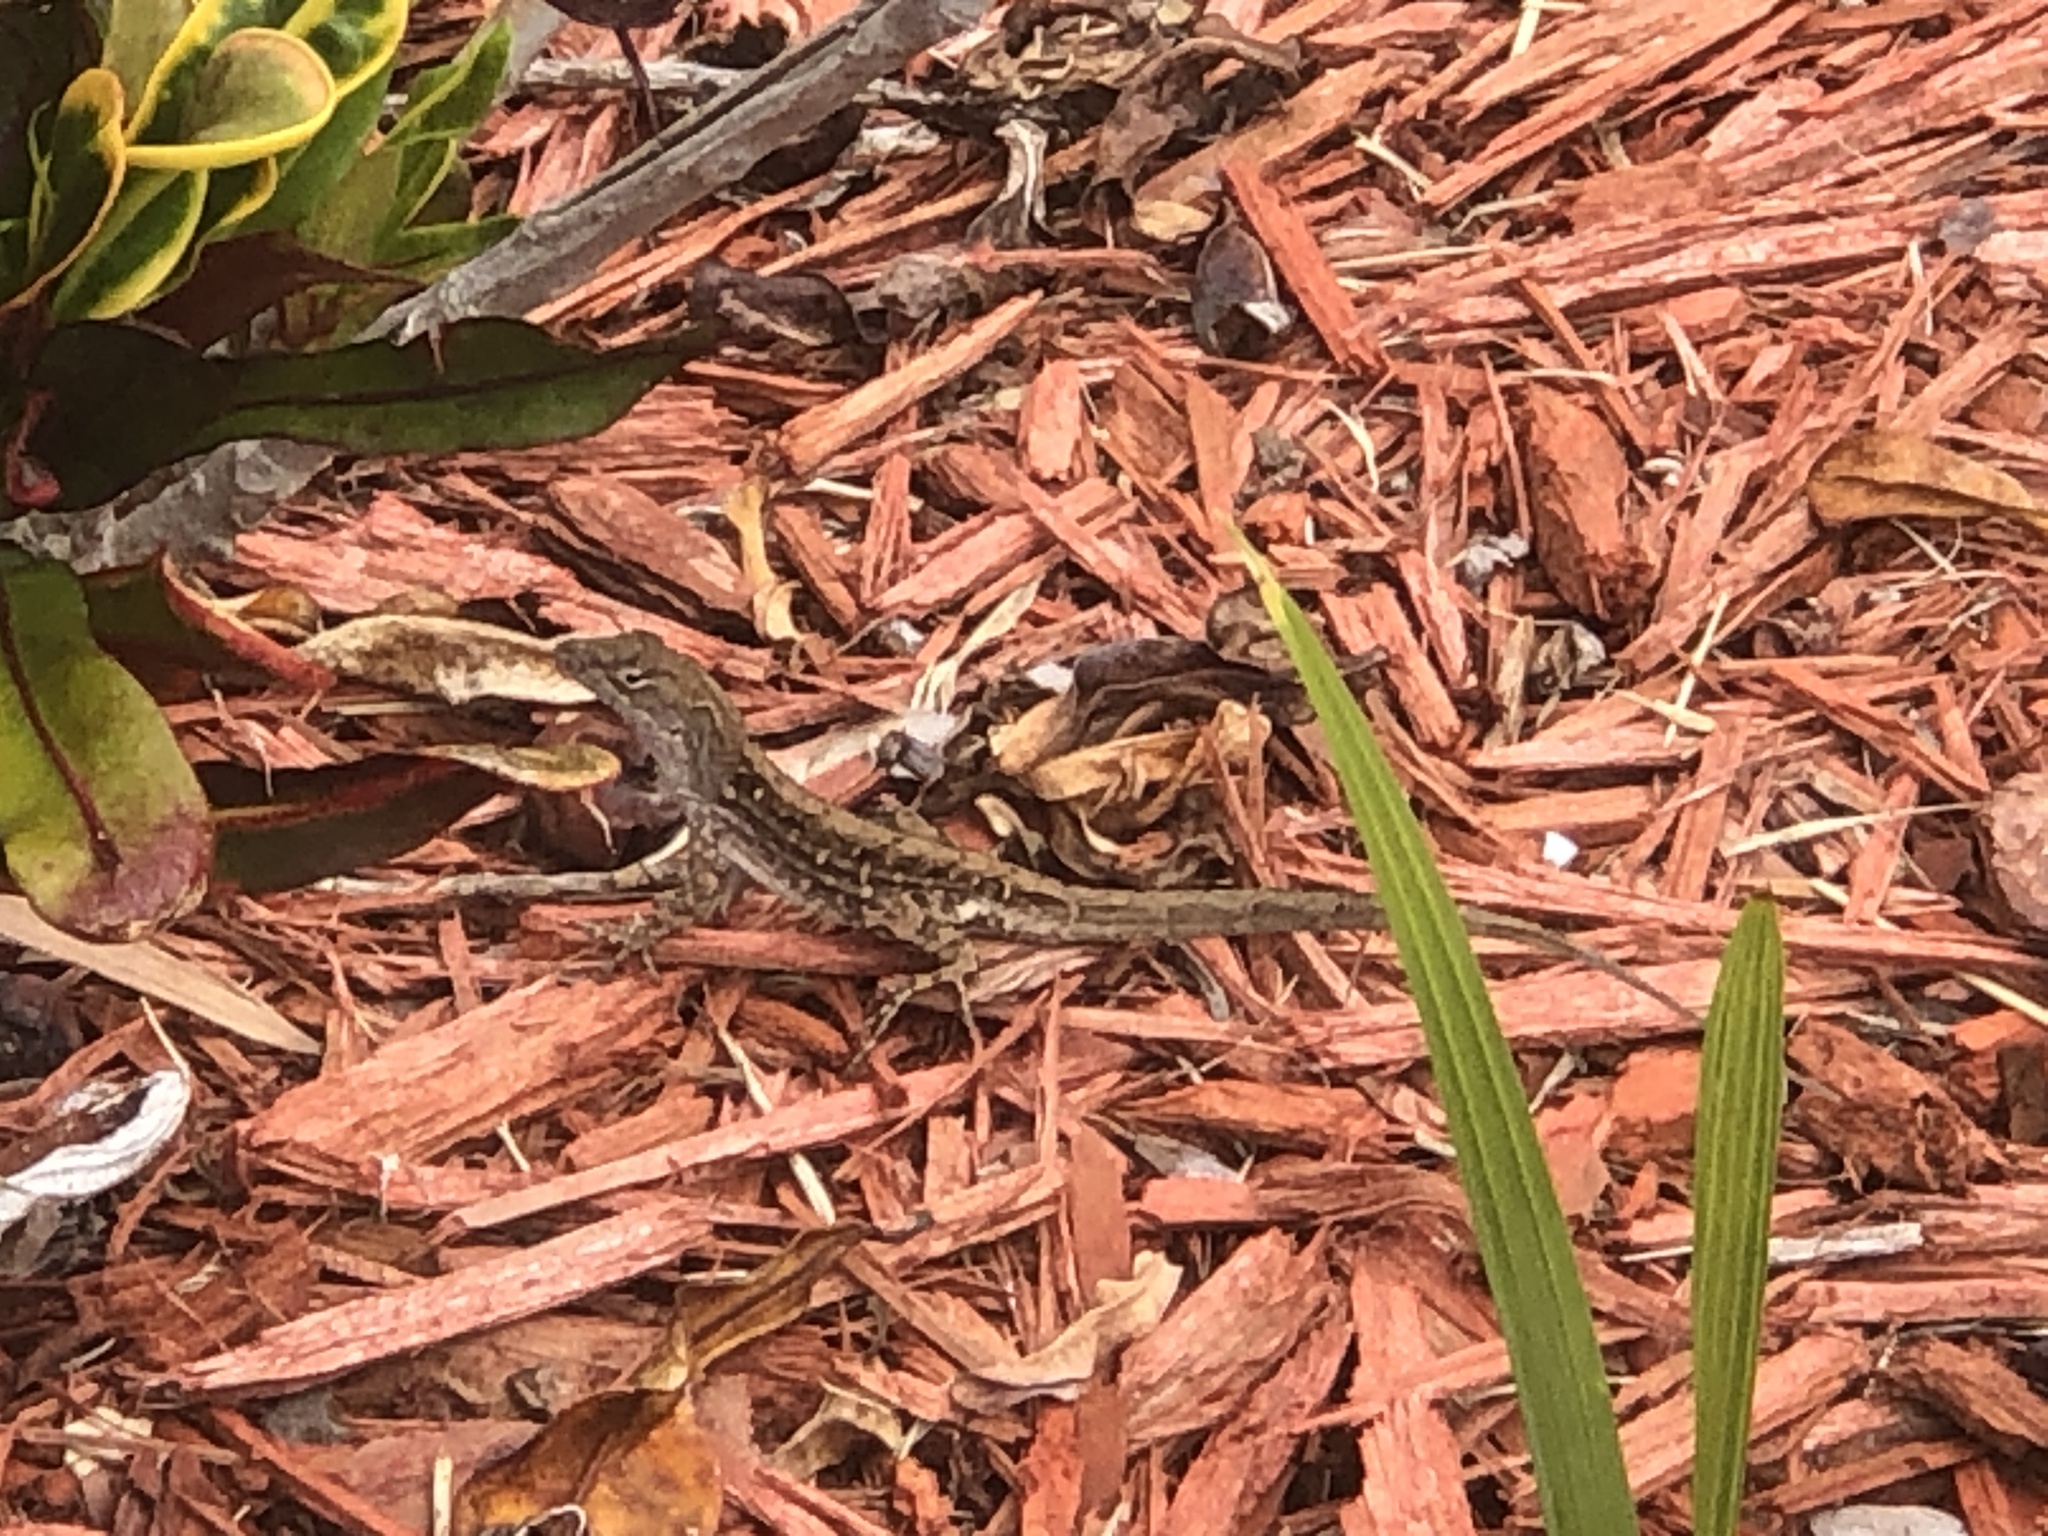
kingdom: Animalia
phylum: Chordata
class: Squamata
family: Dactyloidae
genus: Anolis
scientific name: Anolis sagrei
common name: Brown anole
